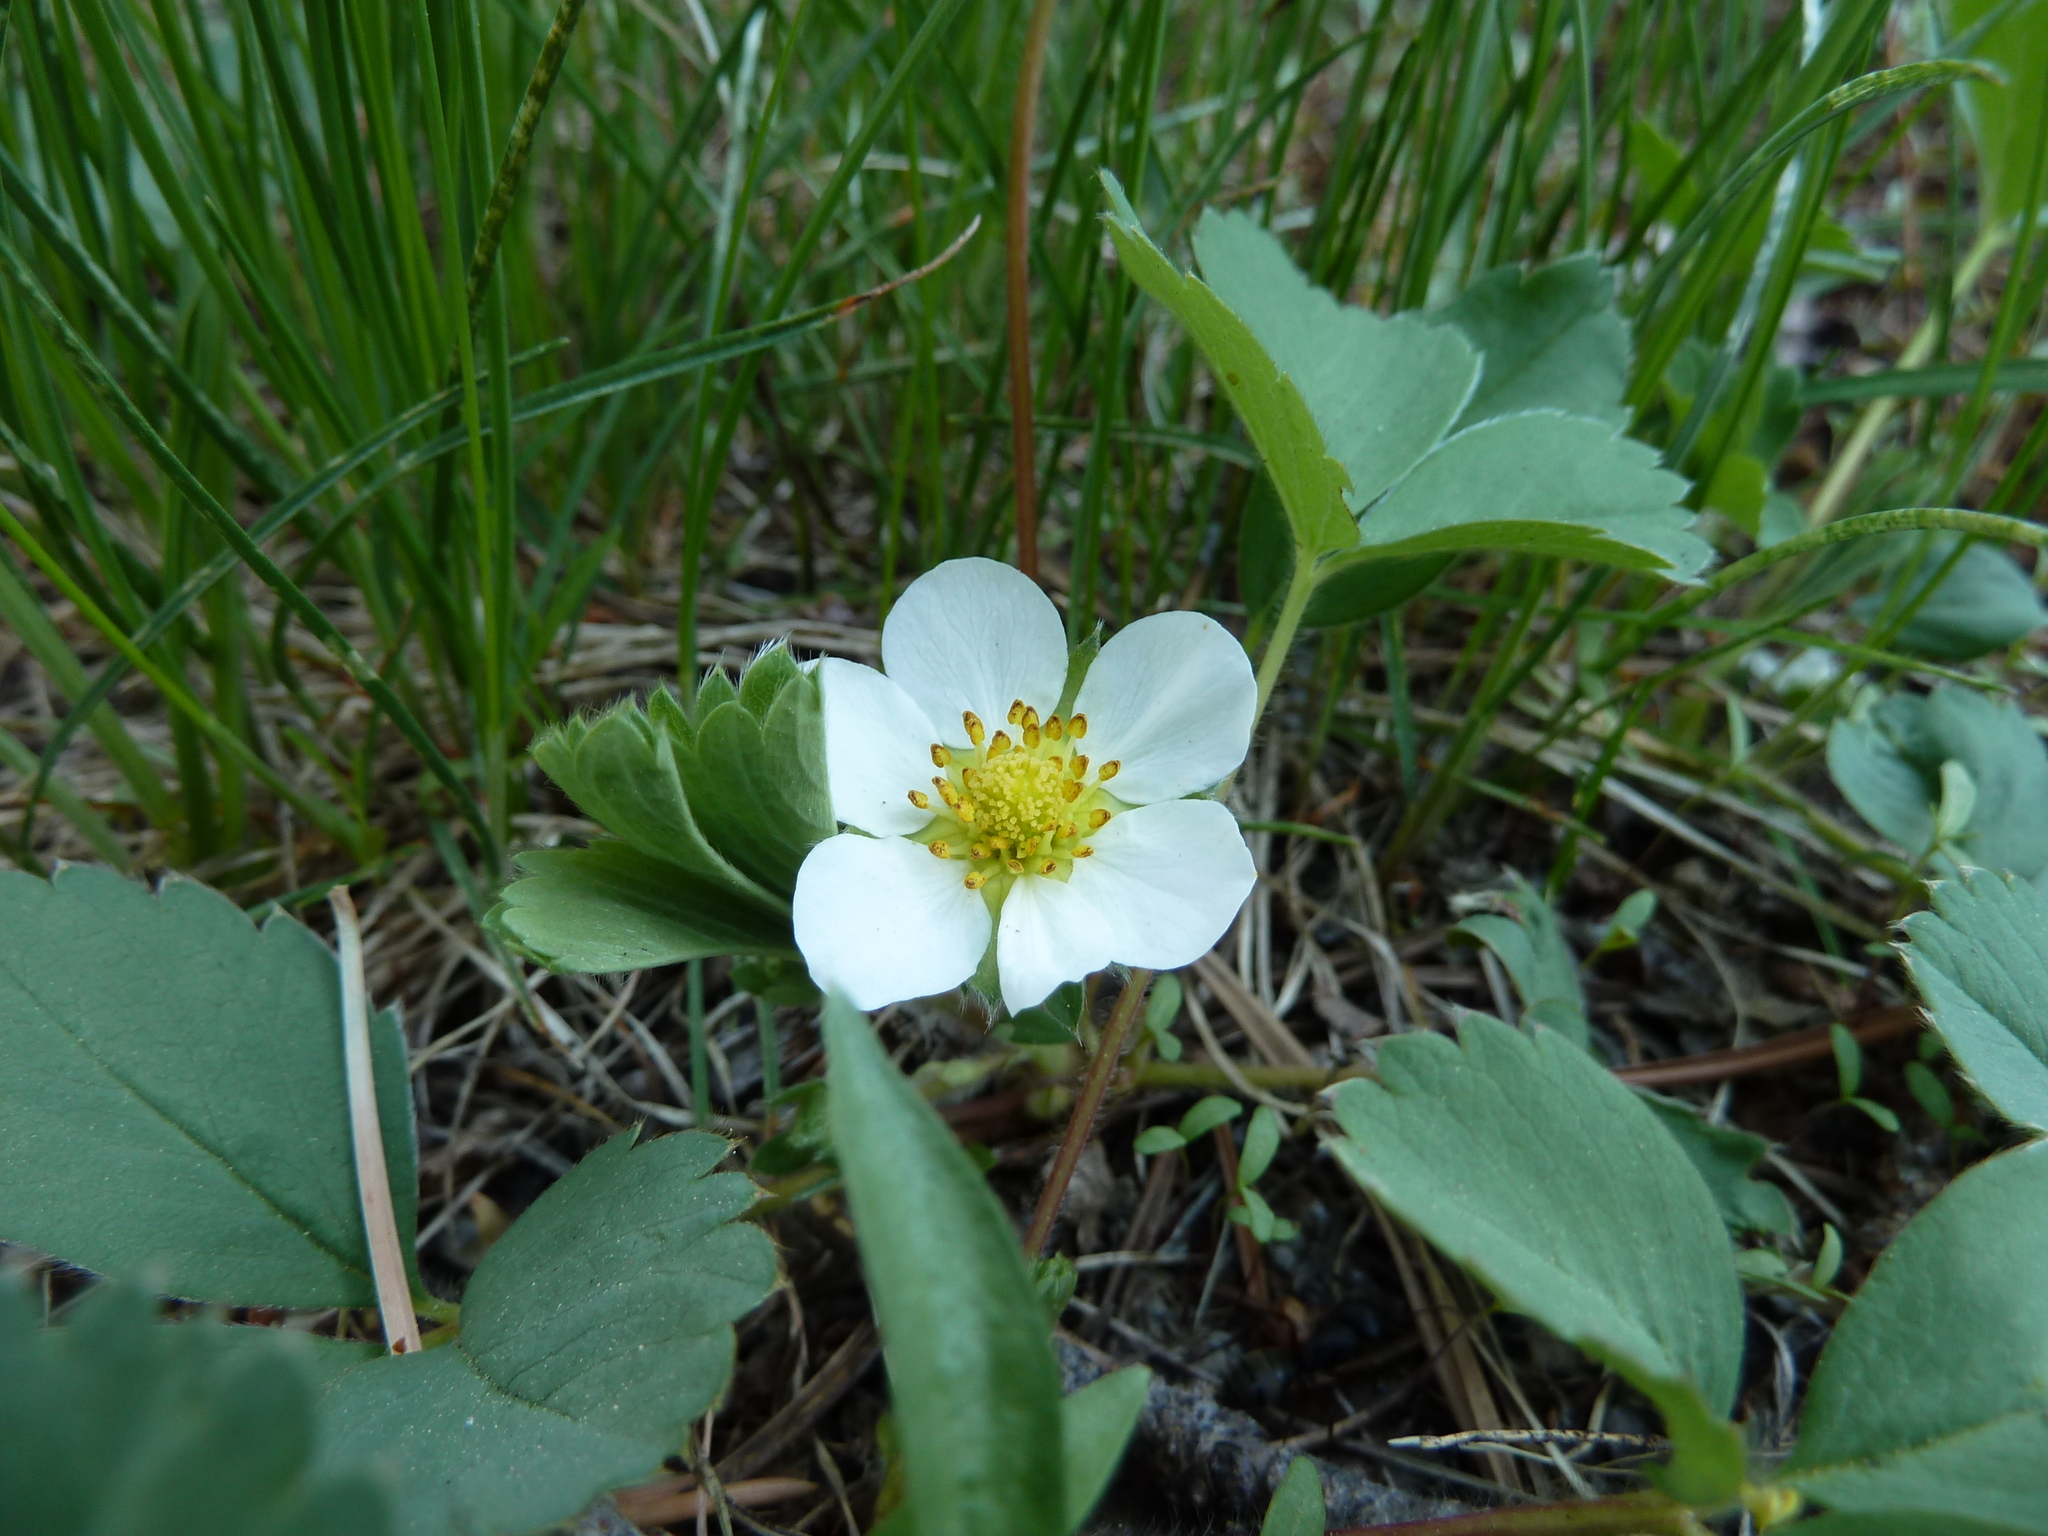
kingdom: Plantae
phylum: Tracheophyta
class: Magnoliopsida
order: Rosales
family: Rosaceae
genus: Fragaria
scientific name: Fragaria virginiana
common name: Thickleaved wild strawberry
